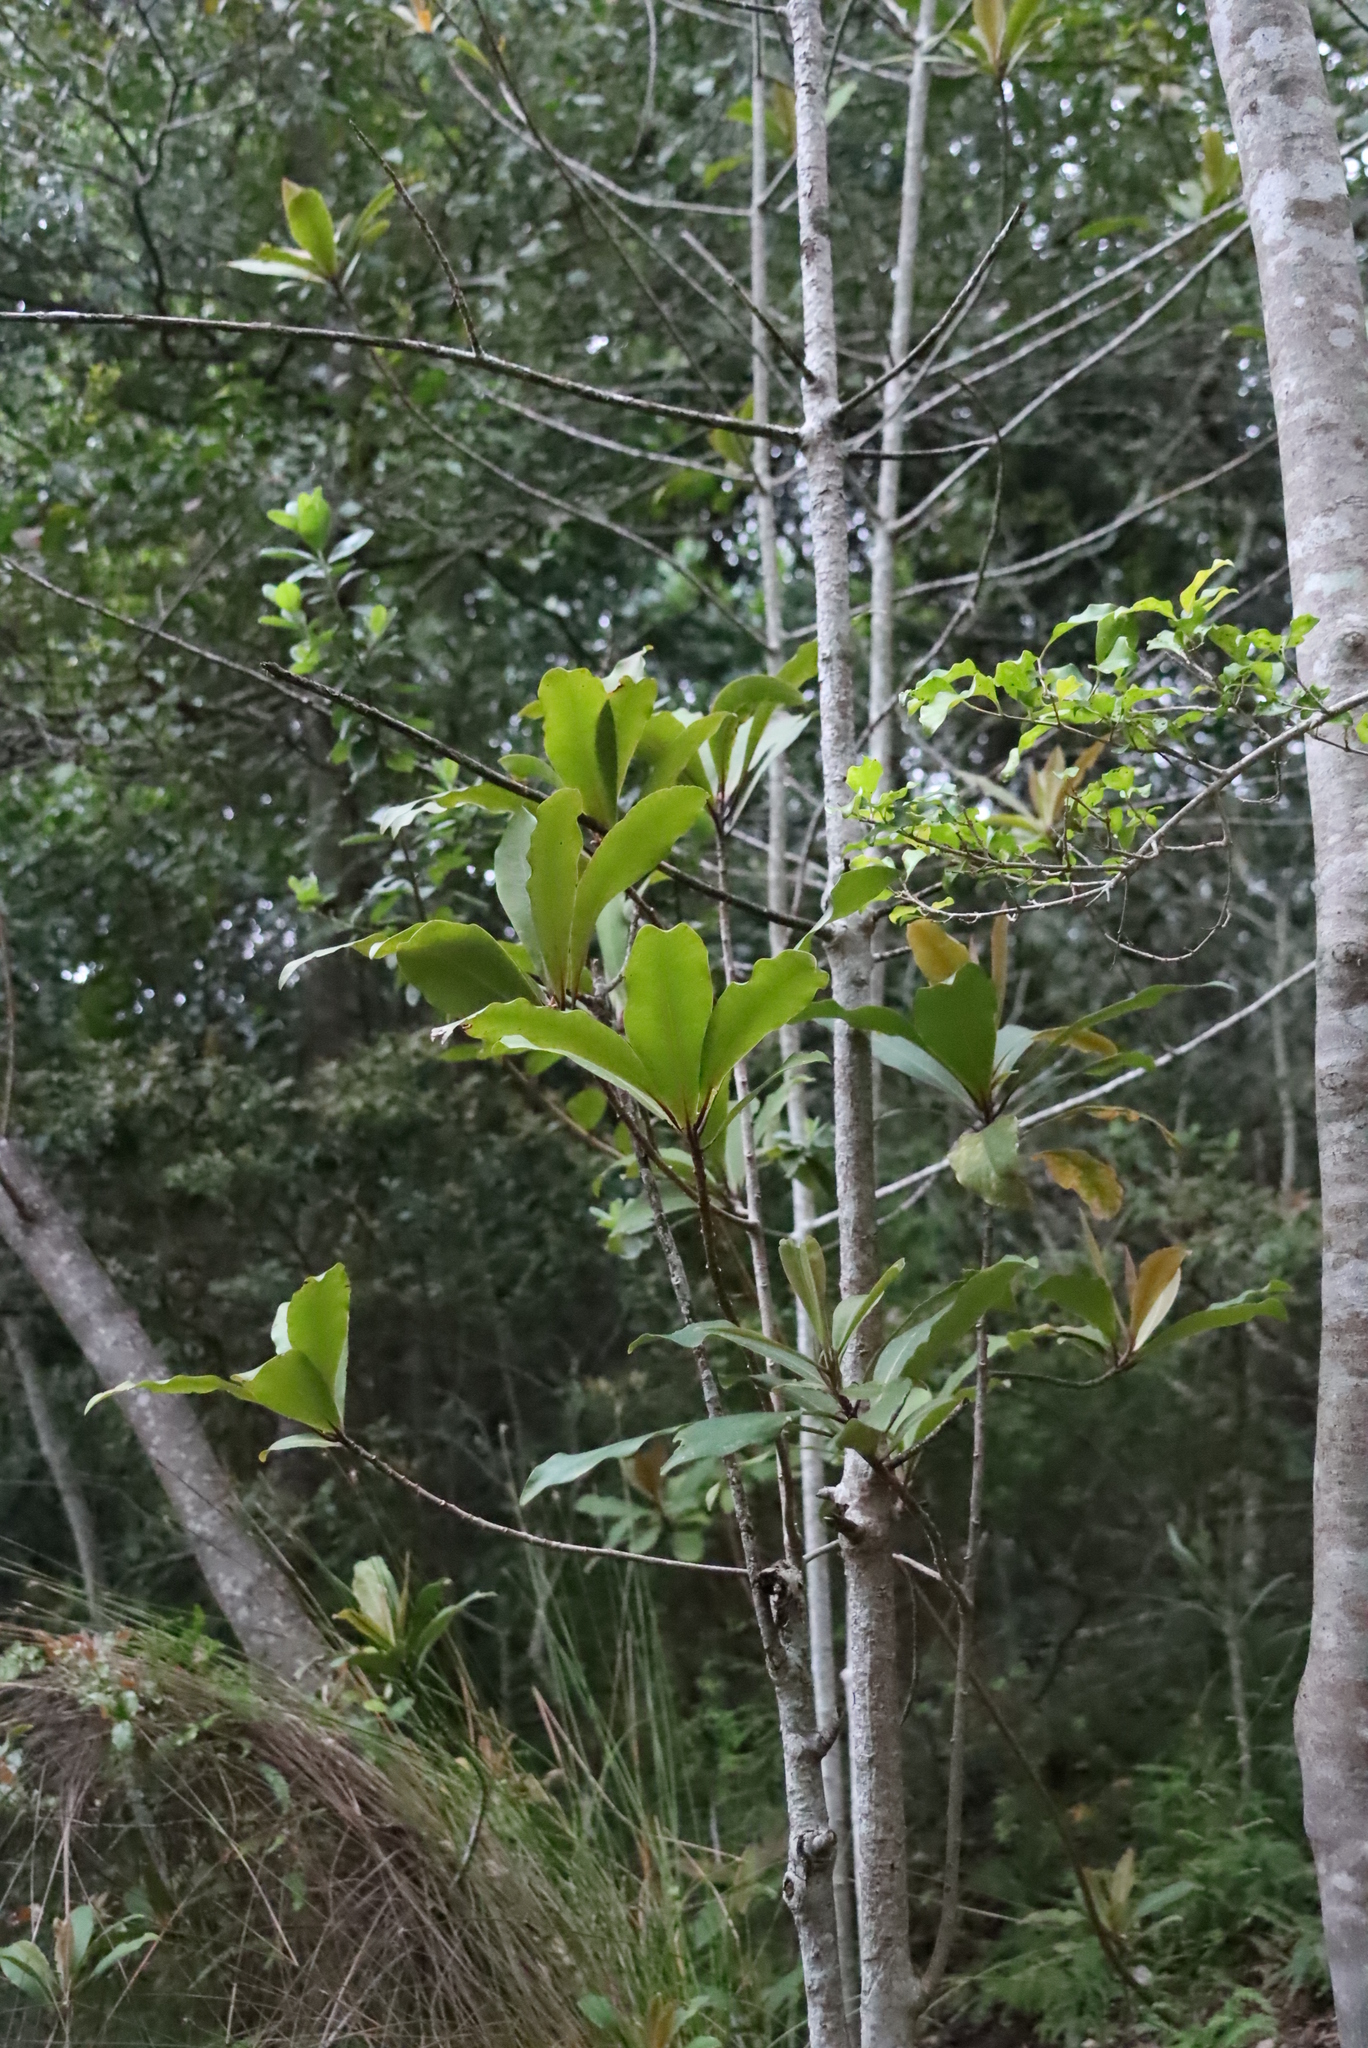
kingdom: Plantae
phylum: Tracheophyta
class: Magnoliopsida
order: Ericales
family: Primulaceae
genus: Myrsine
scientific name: Myrsine melanophloeos
